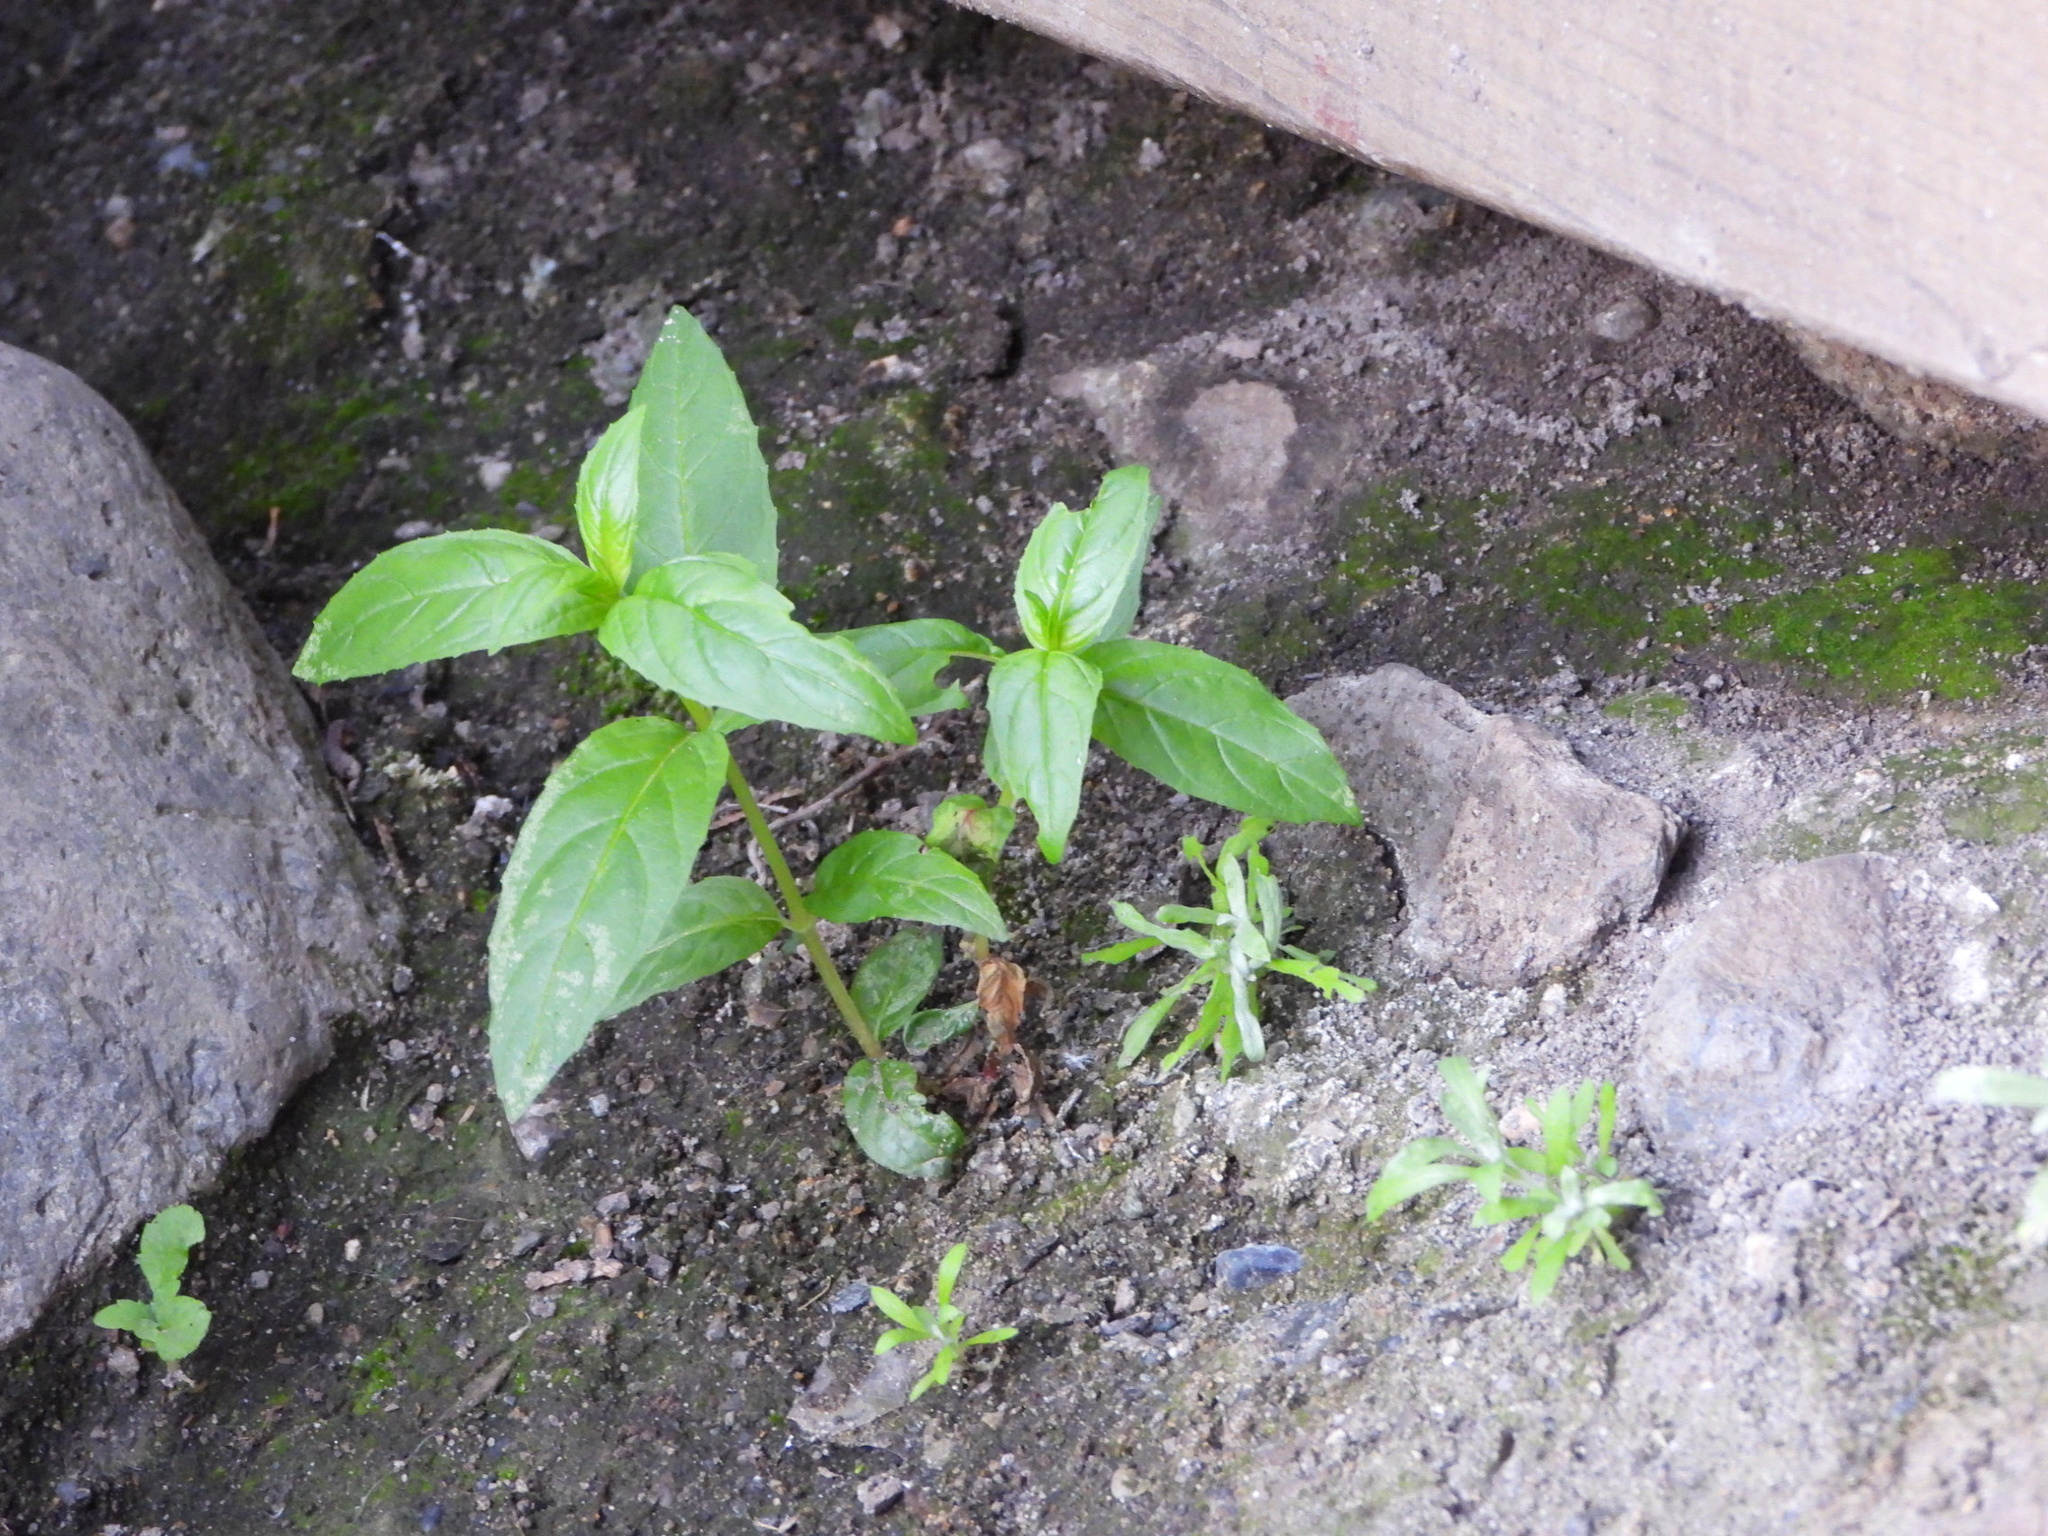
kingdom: Plantae
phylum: Tracheophyta
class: Magnoliopsida
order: Myrtales
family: Onagraceae
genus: Epilobium
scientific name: Epilobium ciliatum
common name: American willowherb
